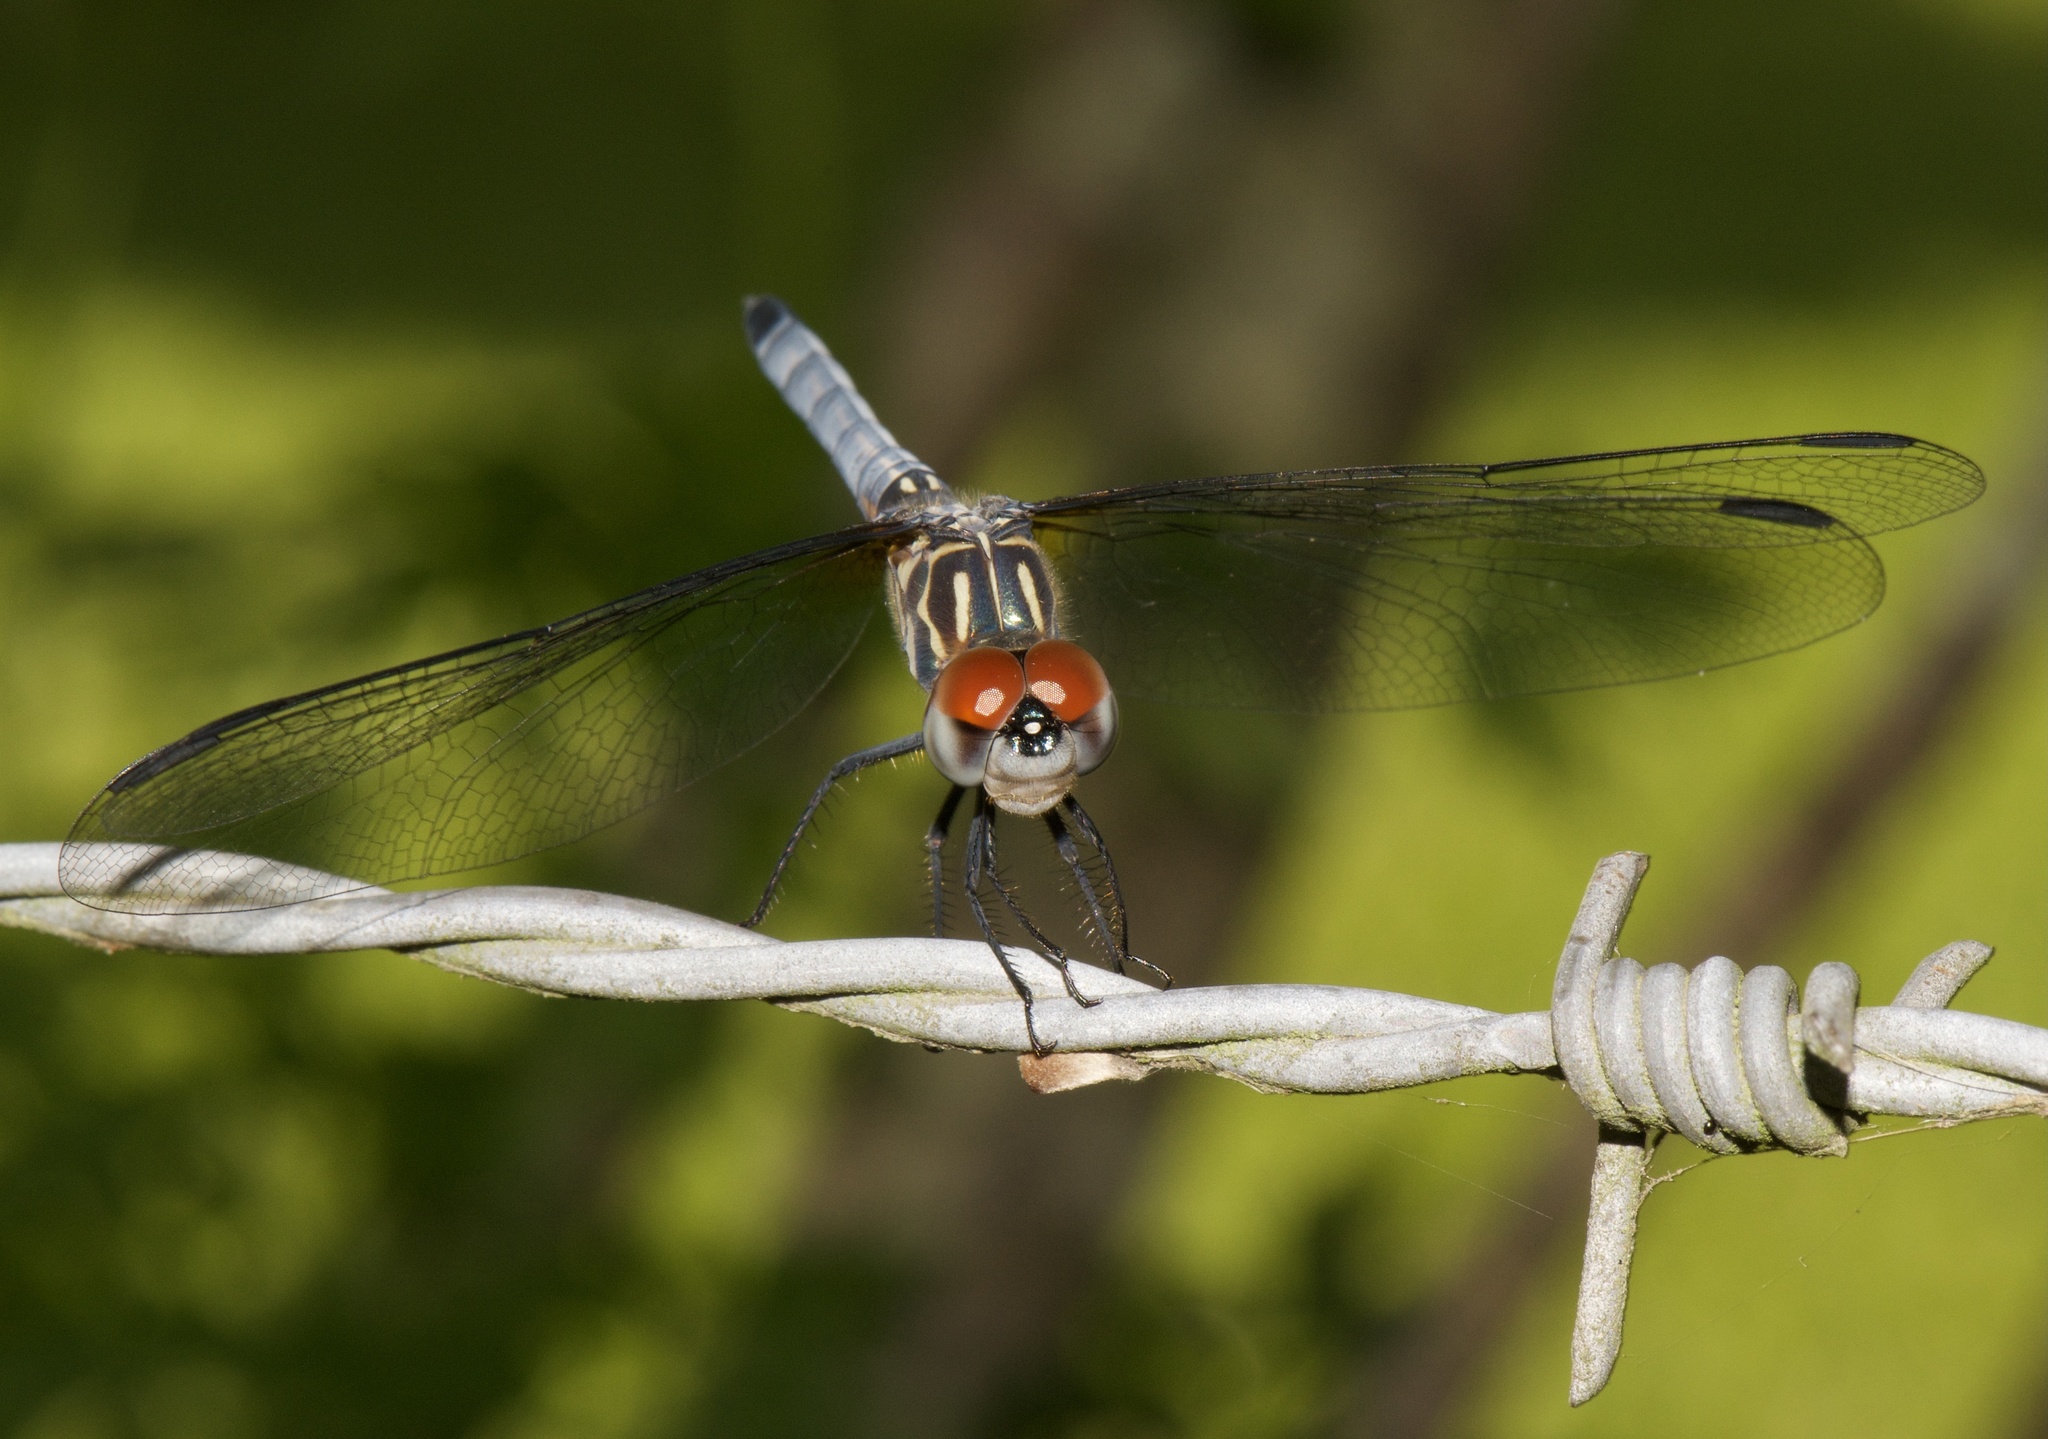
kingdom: Animalia
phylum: Arthropoda
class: Insecta
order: Odonata
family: Libellulidae
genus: Pachydiplax
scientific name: Pachydiplax longipennis
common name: Blue dasher
